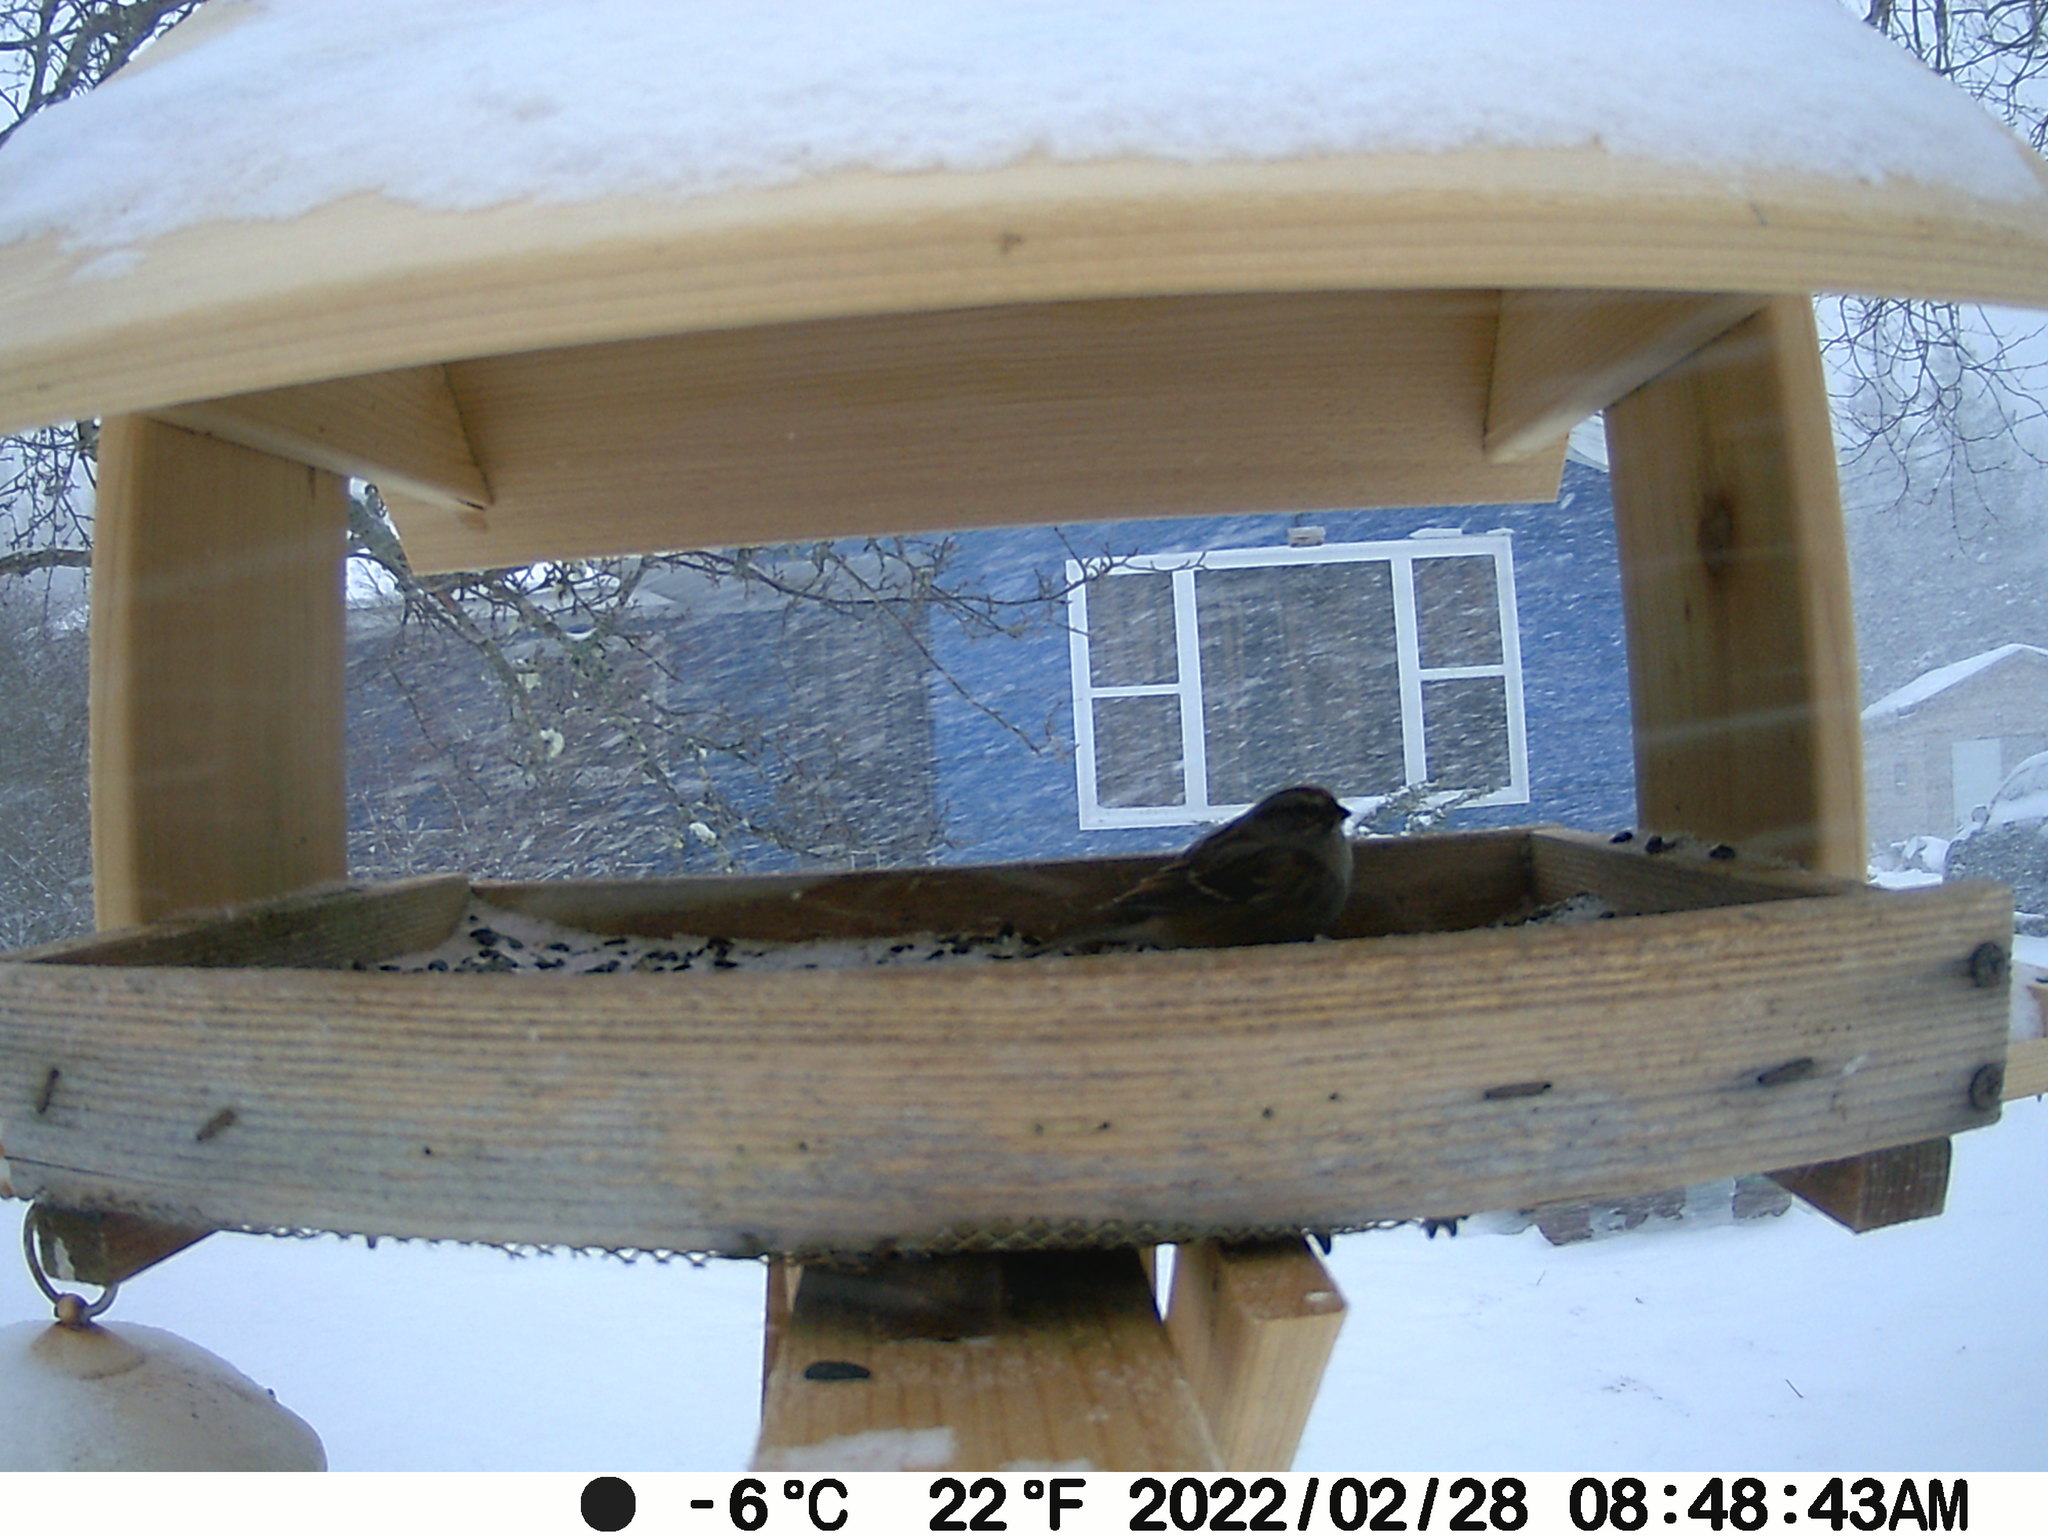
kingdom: Animalia
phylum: Chordata
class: Aves
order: Passeriformes
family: Passerellidae
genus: Spizelloides
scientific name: Spizelloides arborea
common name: American tree sparrow
